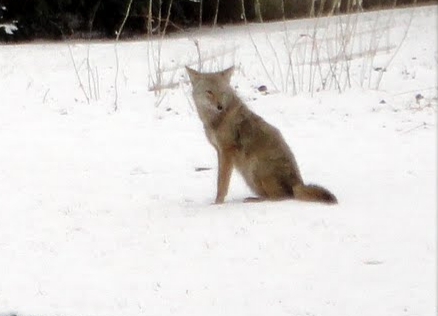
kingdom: Animalia
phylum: Chordata
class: Mammalia
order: Carnivora
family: Canidae
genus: Canis
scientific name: Canis latrans
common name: Coyote
